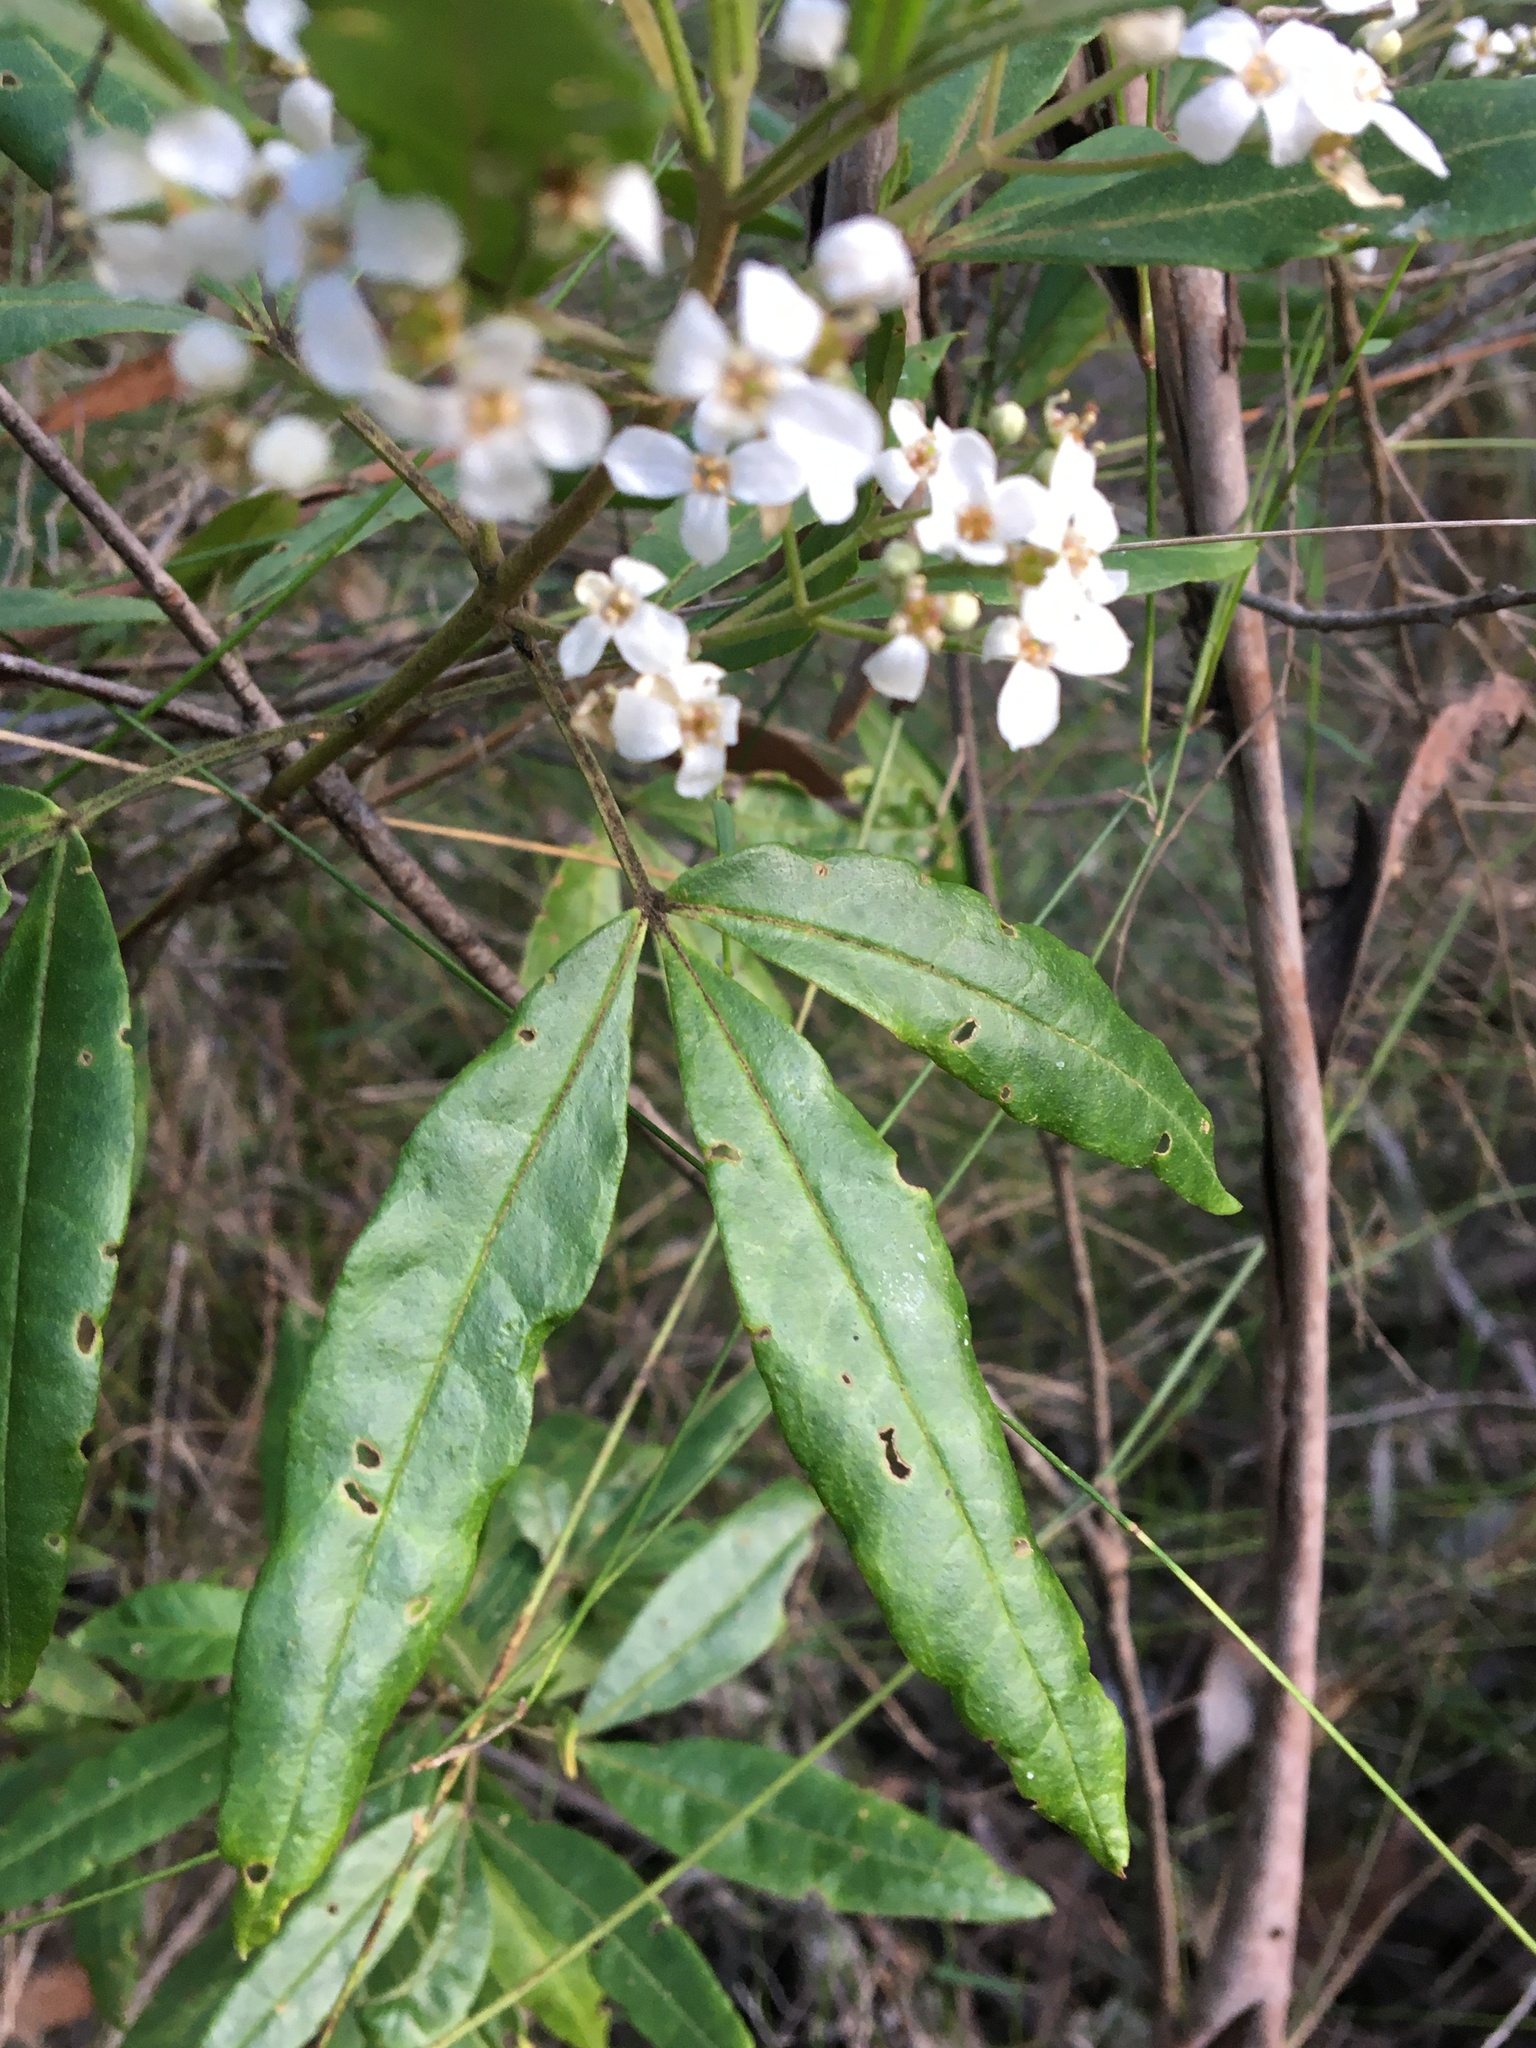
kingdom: Plantae
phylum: Tracheophyta
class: Magnoliopsida
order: Sapindales
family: Rutaceae
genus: Zieria
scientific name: Zieria arborescens
